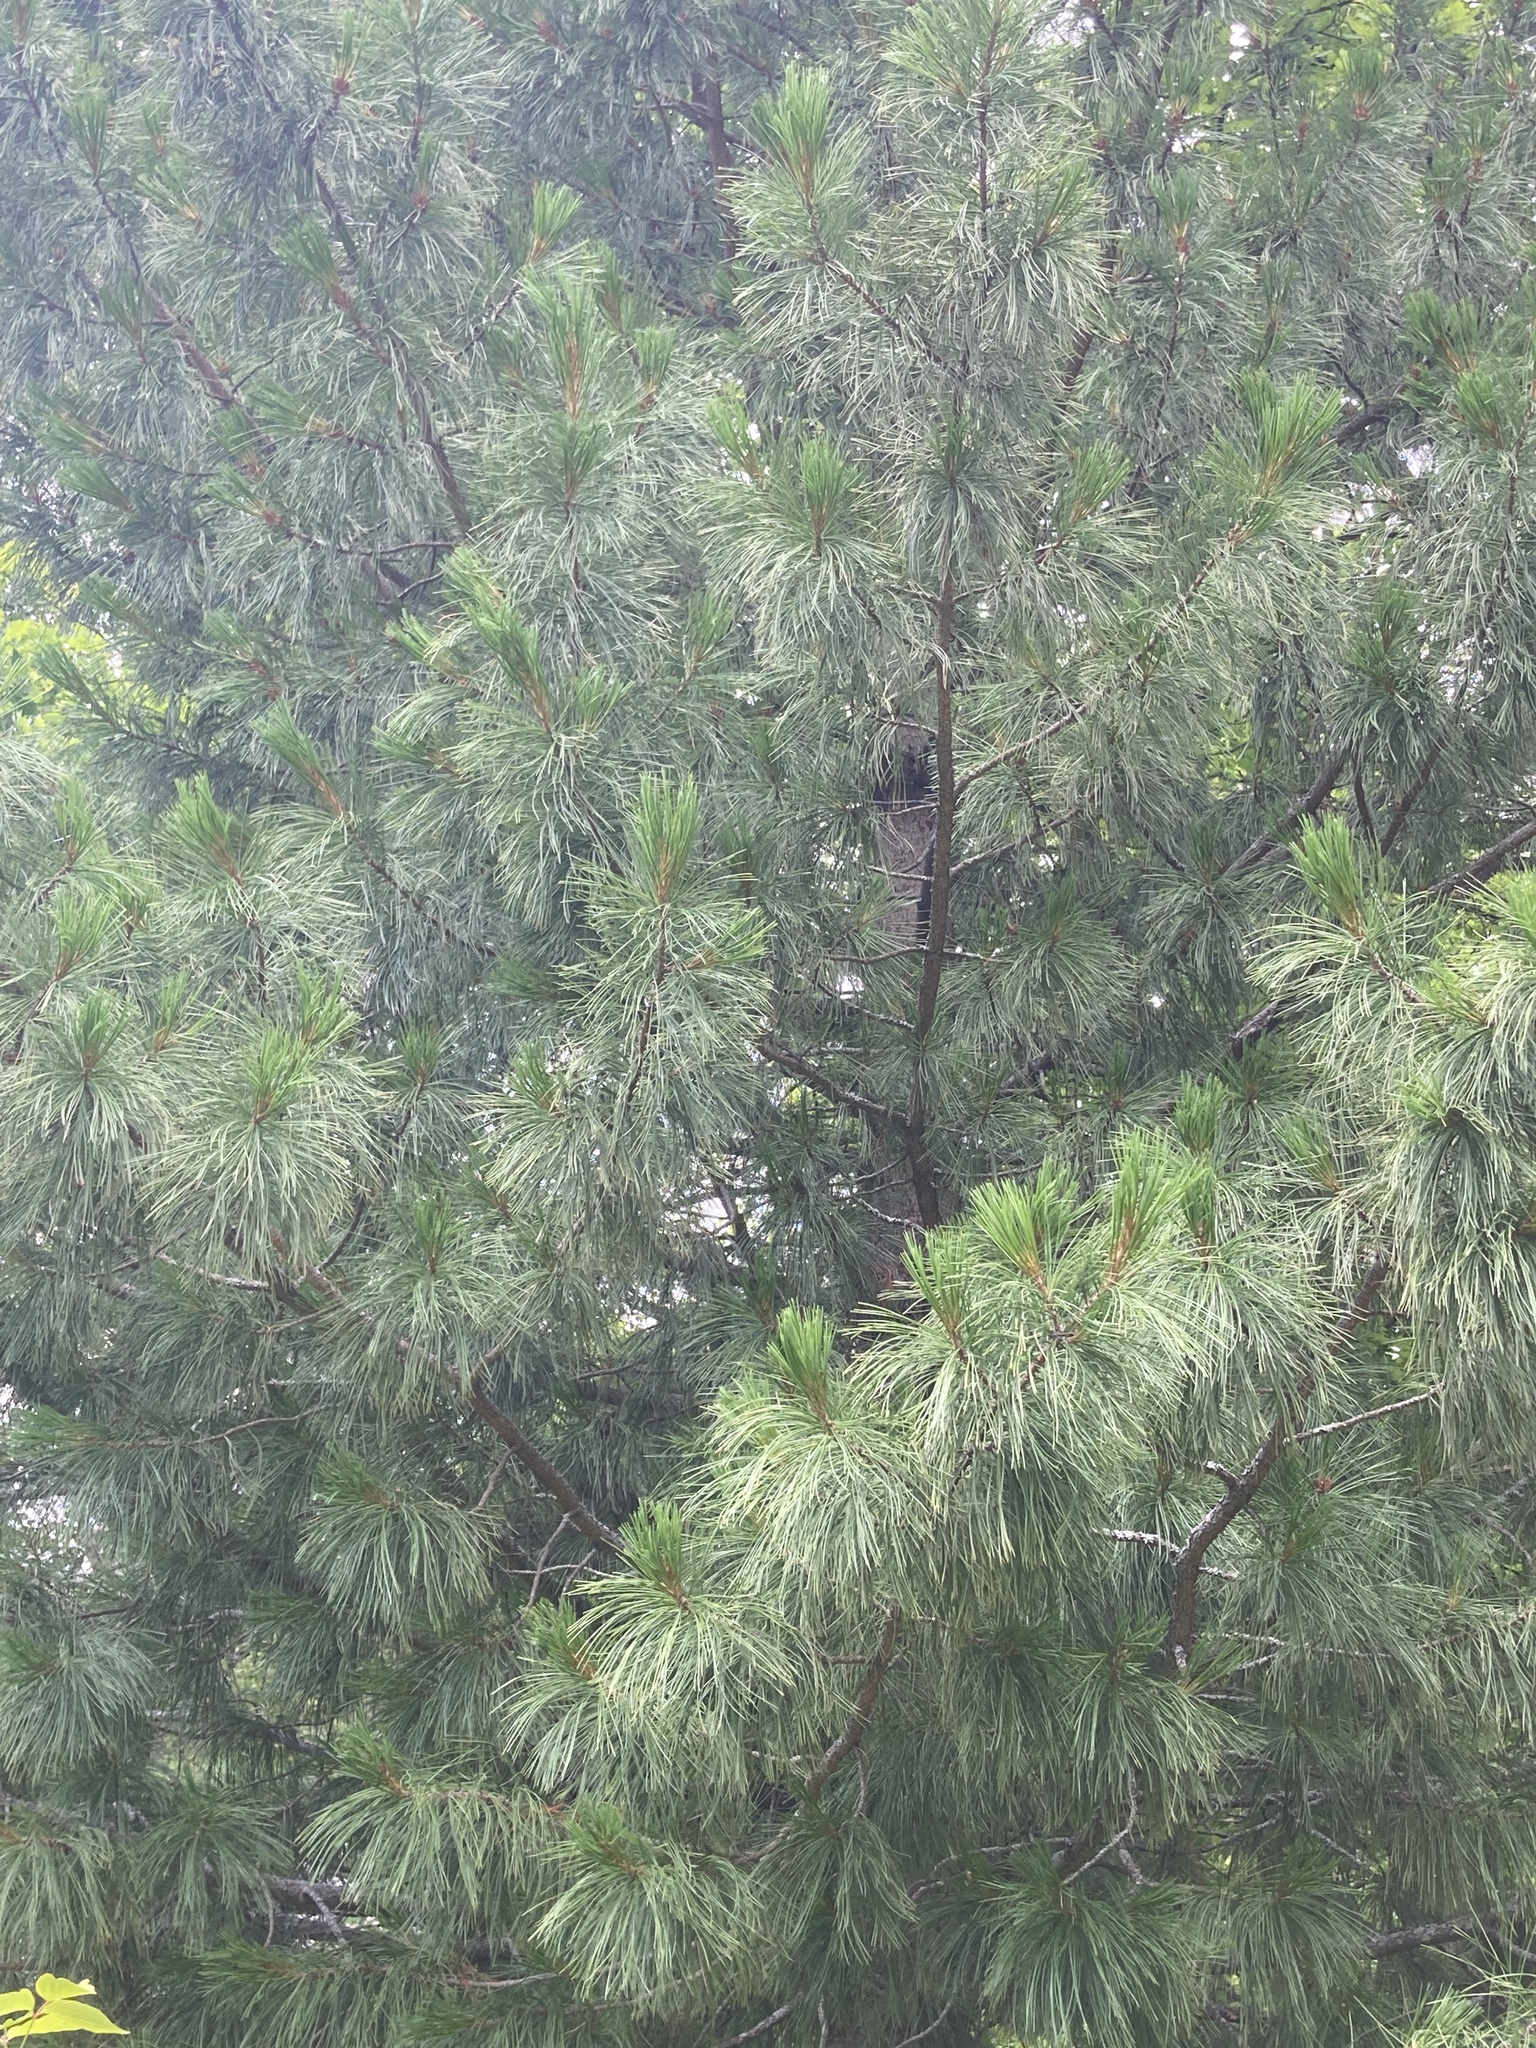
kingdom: Plantae
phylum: Tracheophyta
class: Pinopsida
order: Pinales
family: Pinaceae
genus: Pinus
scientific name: Pinus sibirica
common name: Siberian pine
